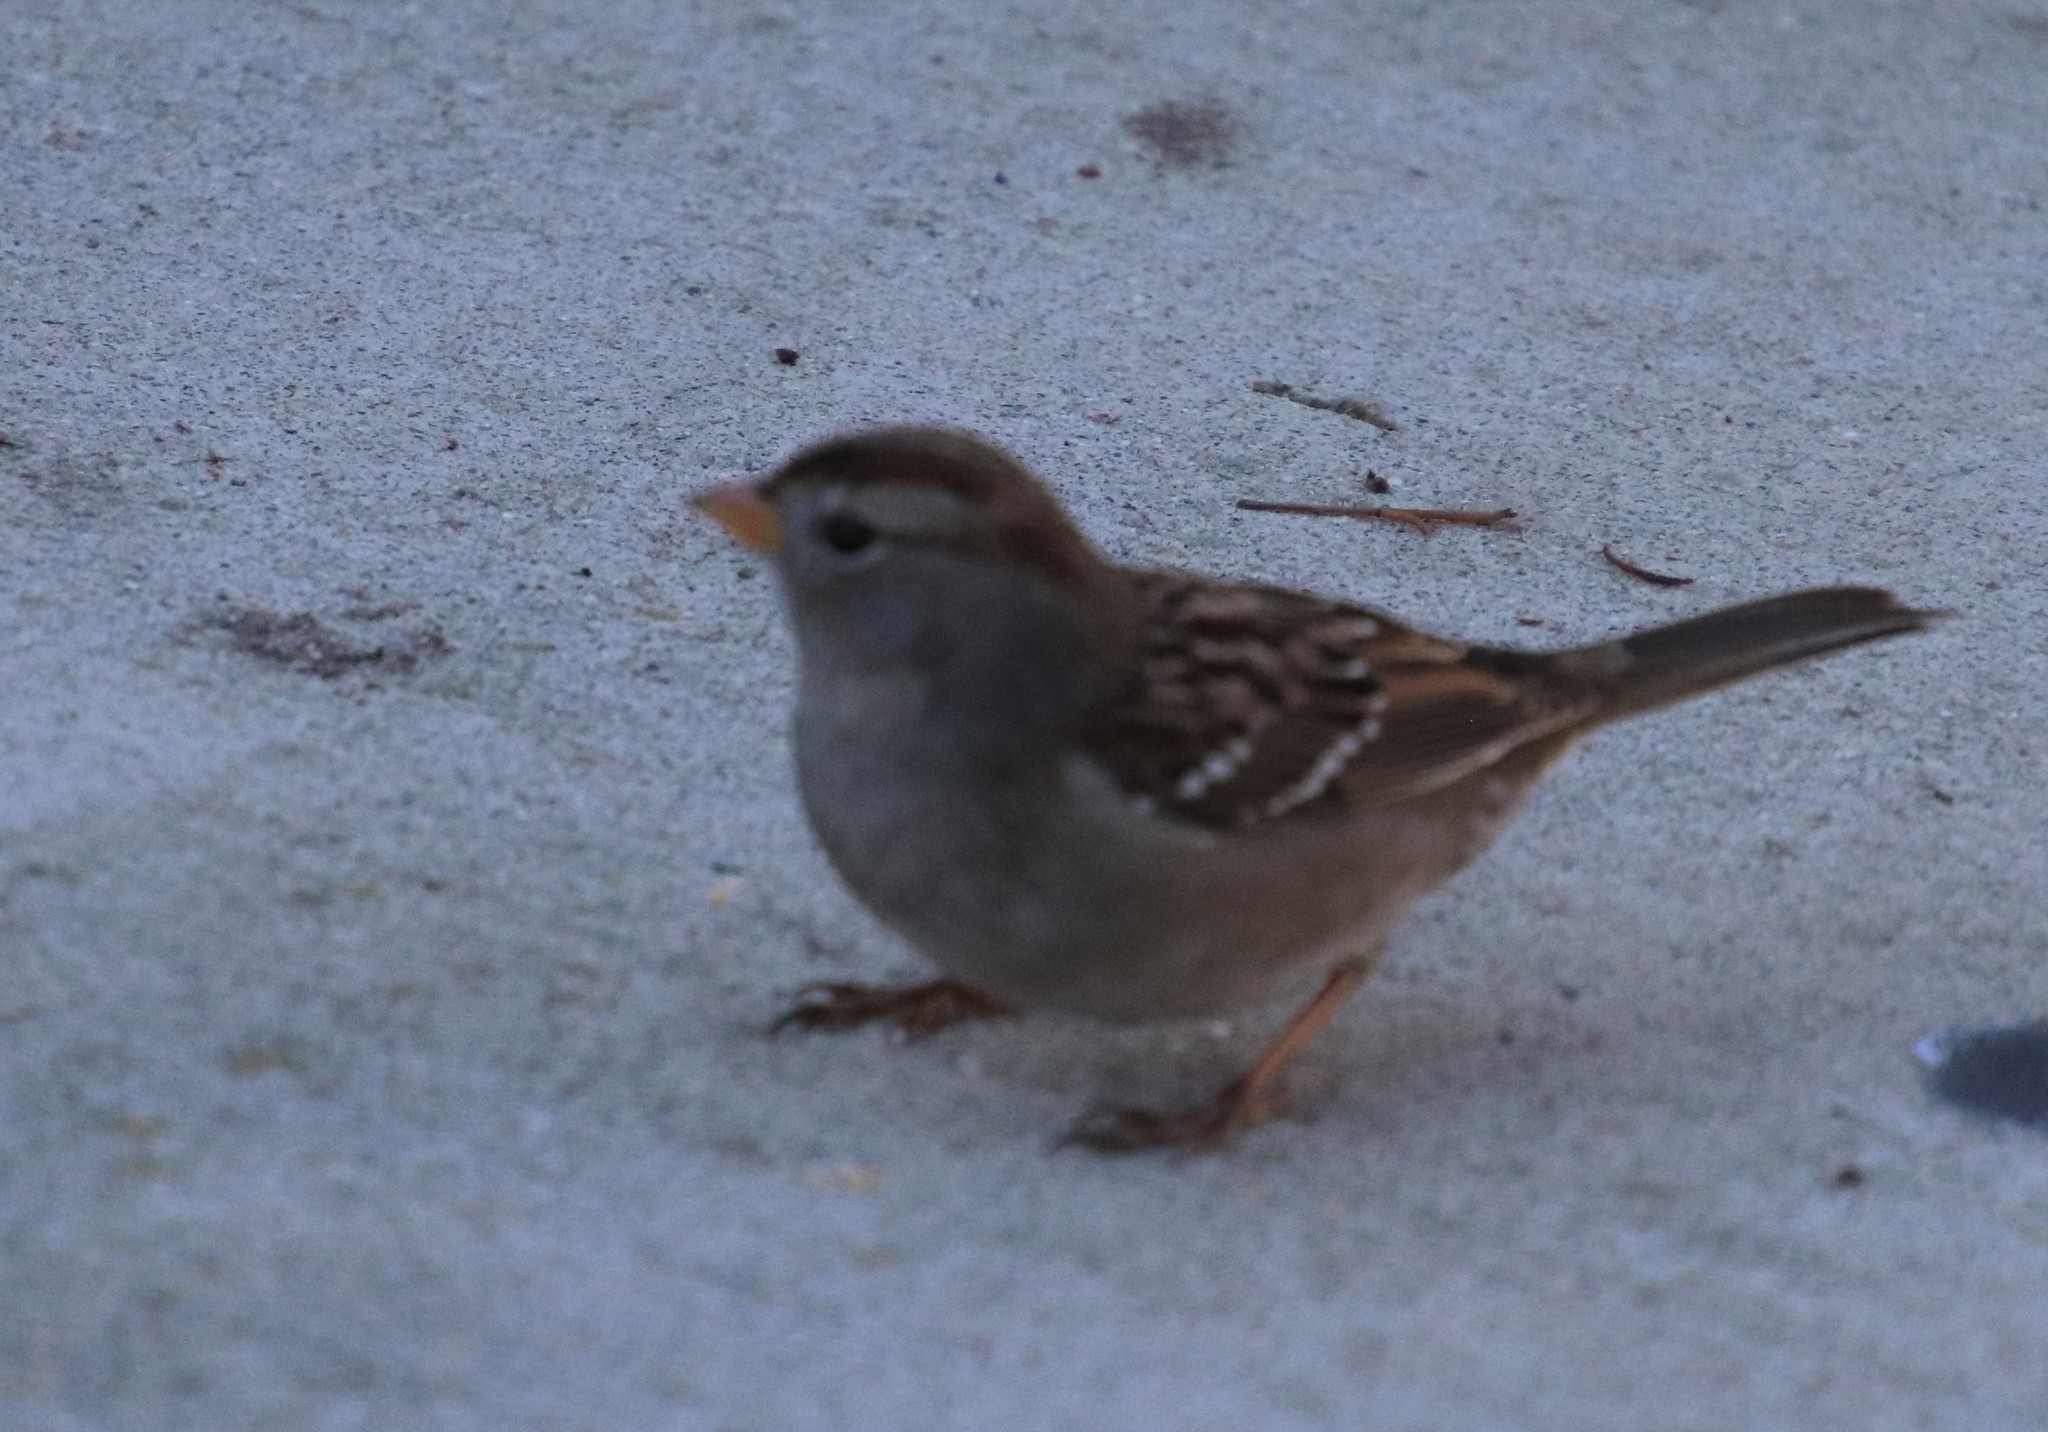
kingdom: Animalia
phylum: Chordata
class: Aves
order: Passeriformes
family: Passerellidae
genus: Zonotrichia
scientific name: Zonotrichia leucophrys
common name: White-crowned sparrow
